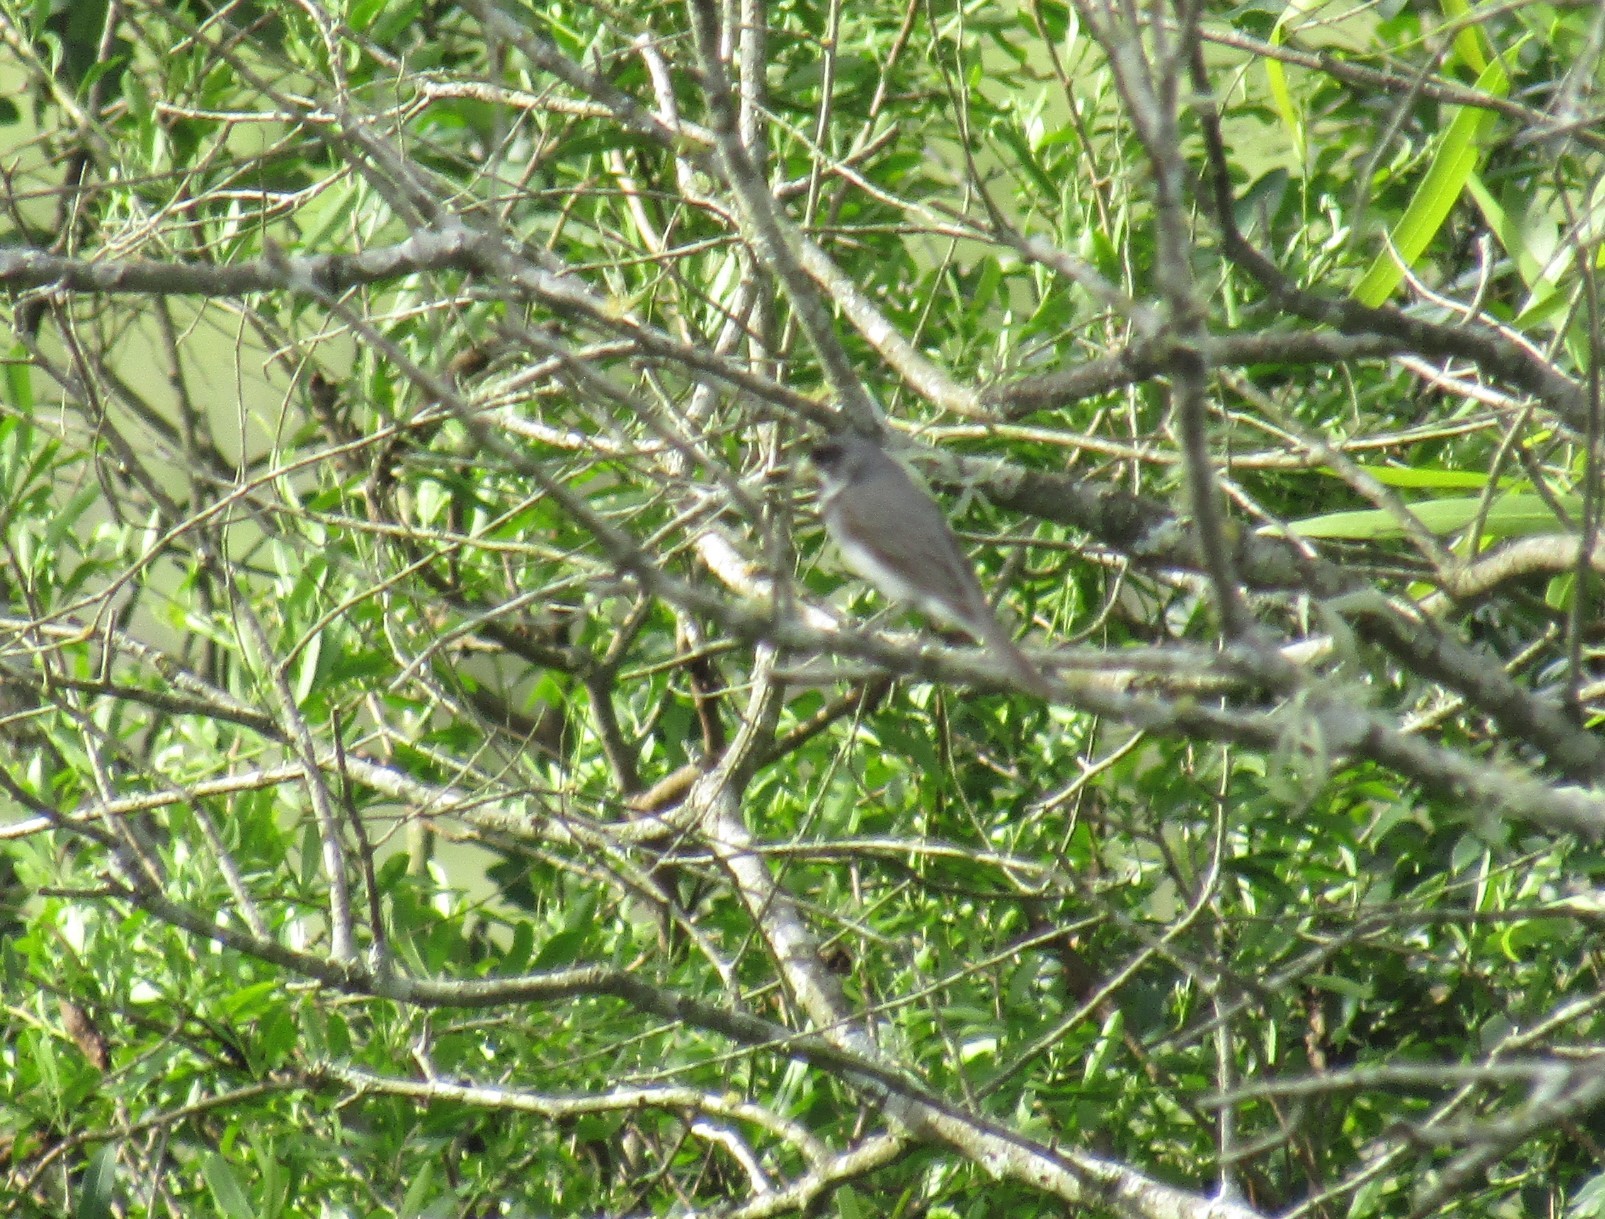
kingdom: Animalia
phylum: Chordata
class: Aves
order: Passeriformes
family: Thraupidae
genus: Sporophila
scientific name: Sporophila caerulescens
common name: Double-collared seedeater
